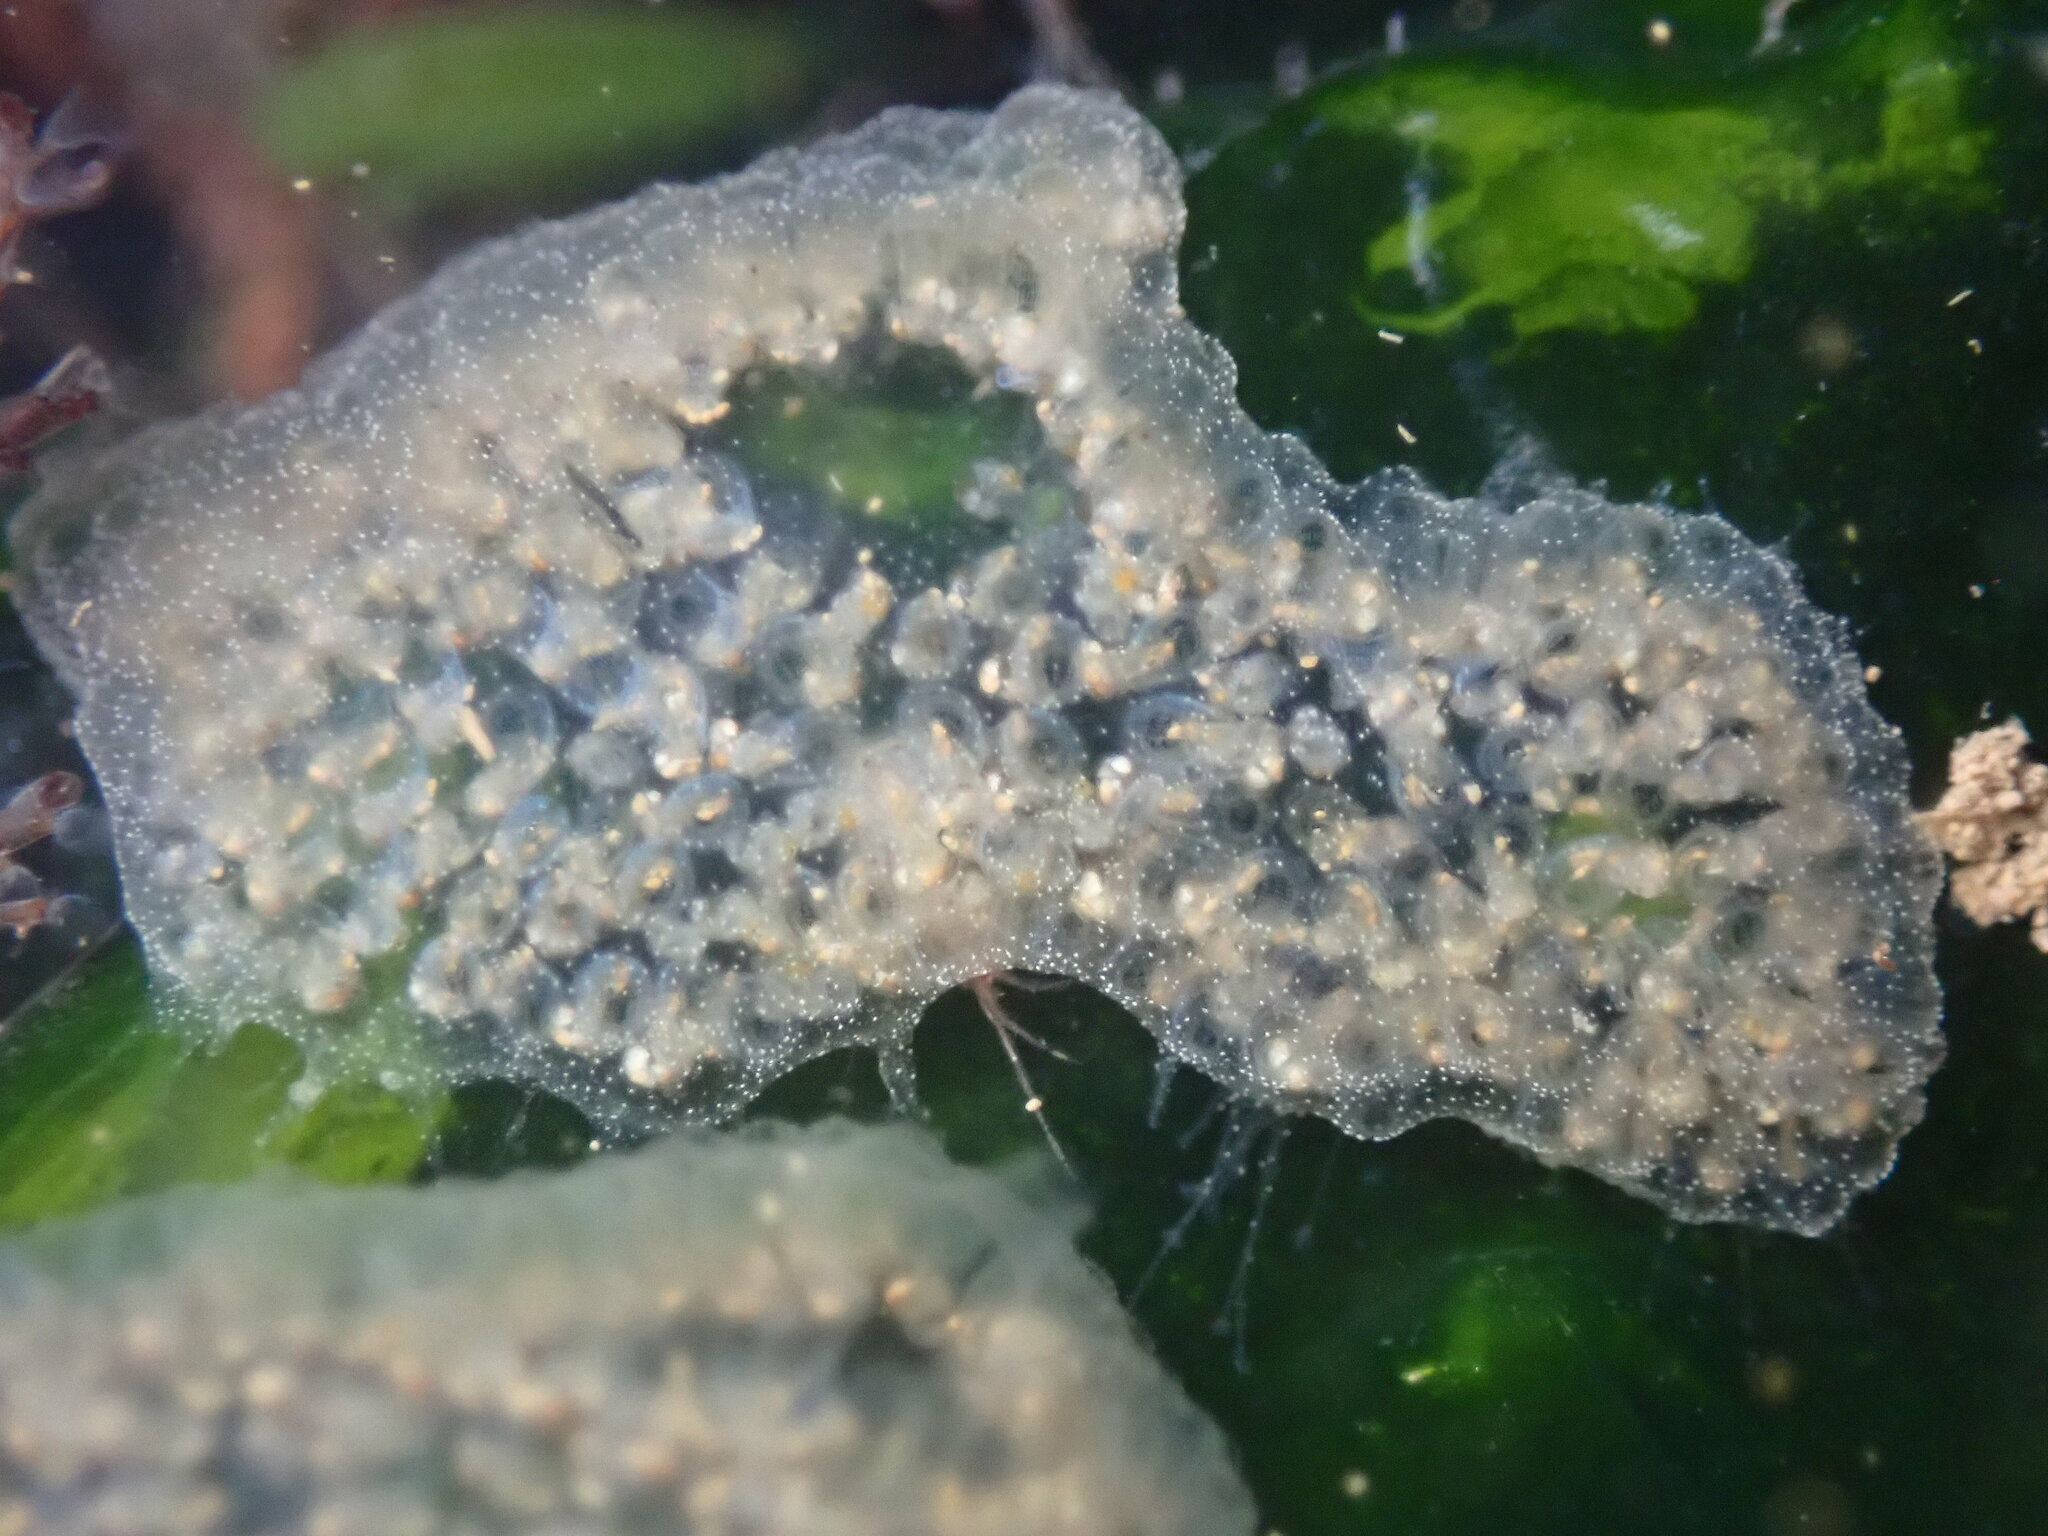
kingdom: Animalia
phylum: Chordata
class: Ascidiacea
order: Aplousobranchia
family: Didemnidae
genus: Diplosoma
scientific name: Diplosoma listerianum
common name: Compound sea squirt
